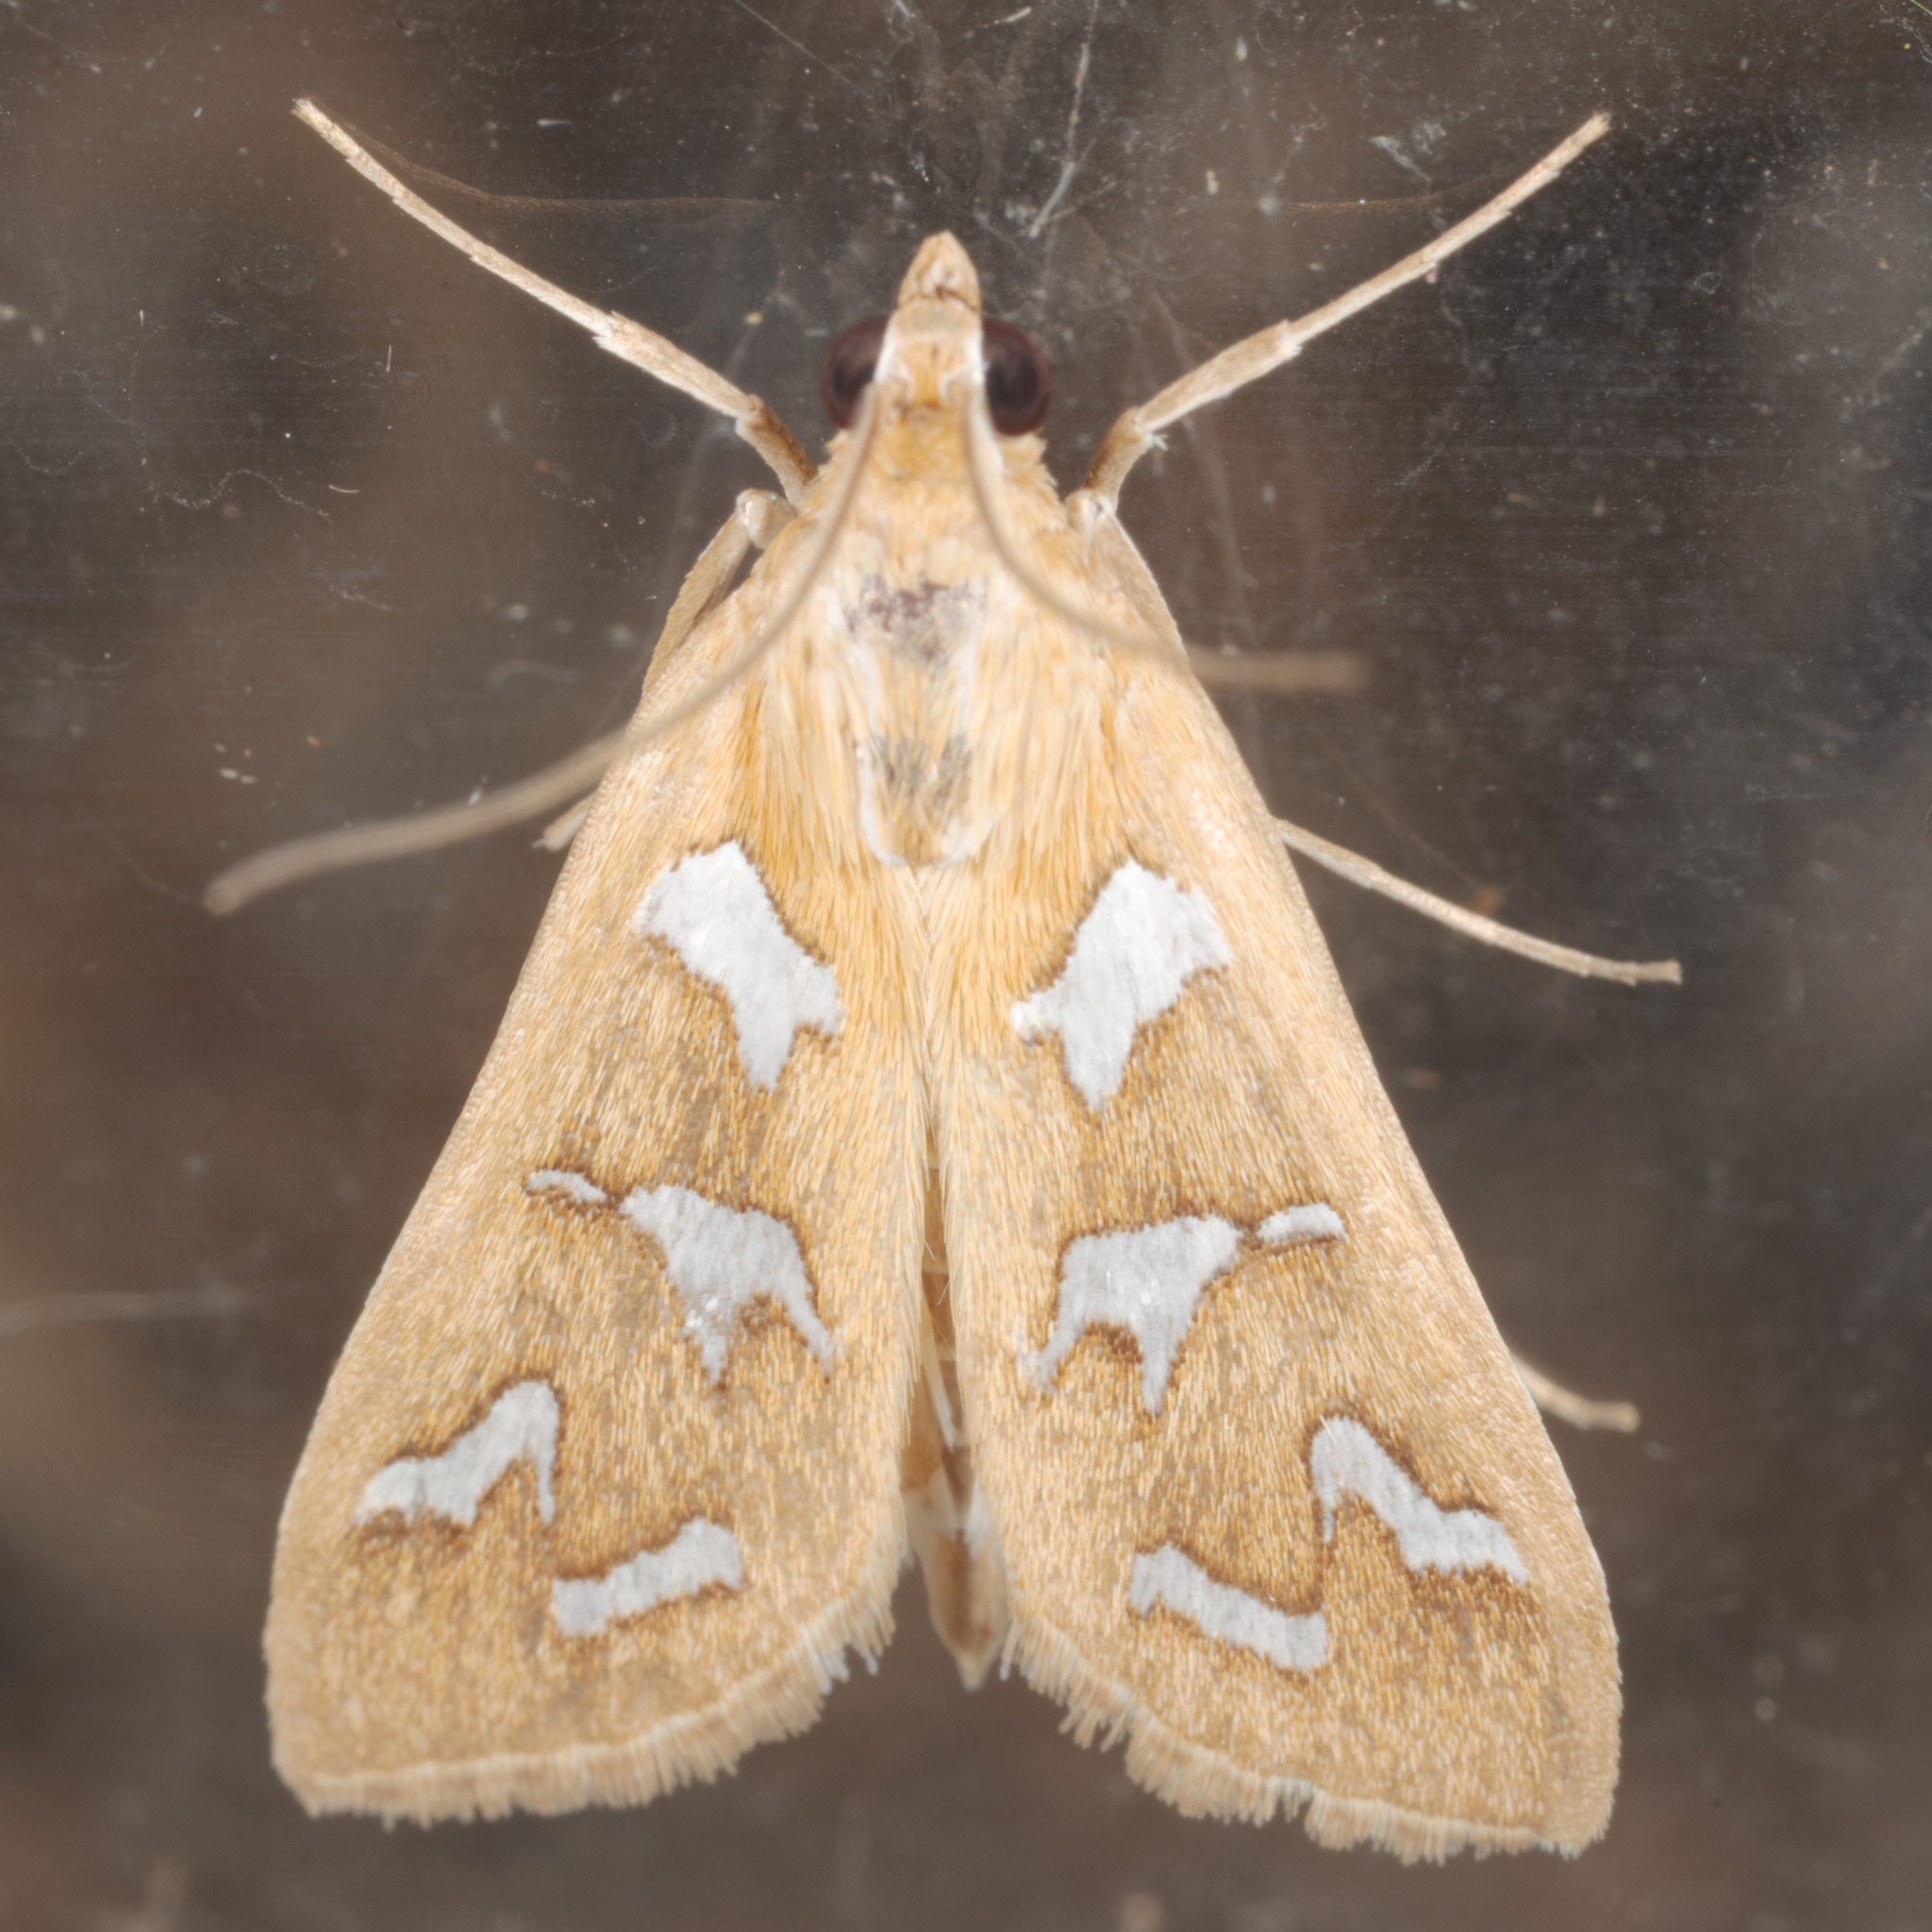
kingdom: Animalia
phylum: Arthropoda
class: Insecta
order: Lepidoptera
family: Crambidae
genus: Diastictis
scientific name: Diastictis fracturalis
